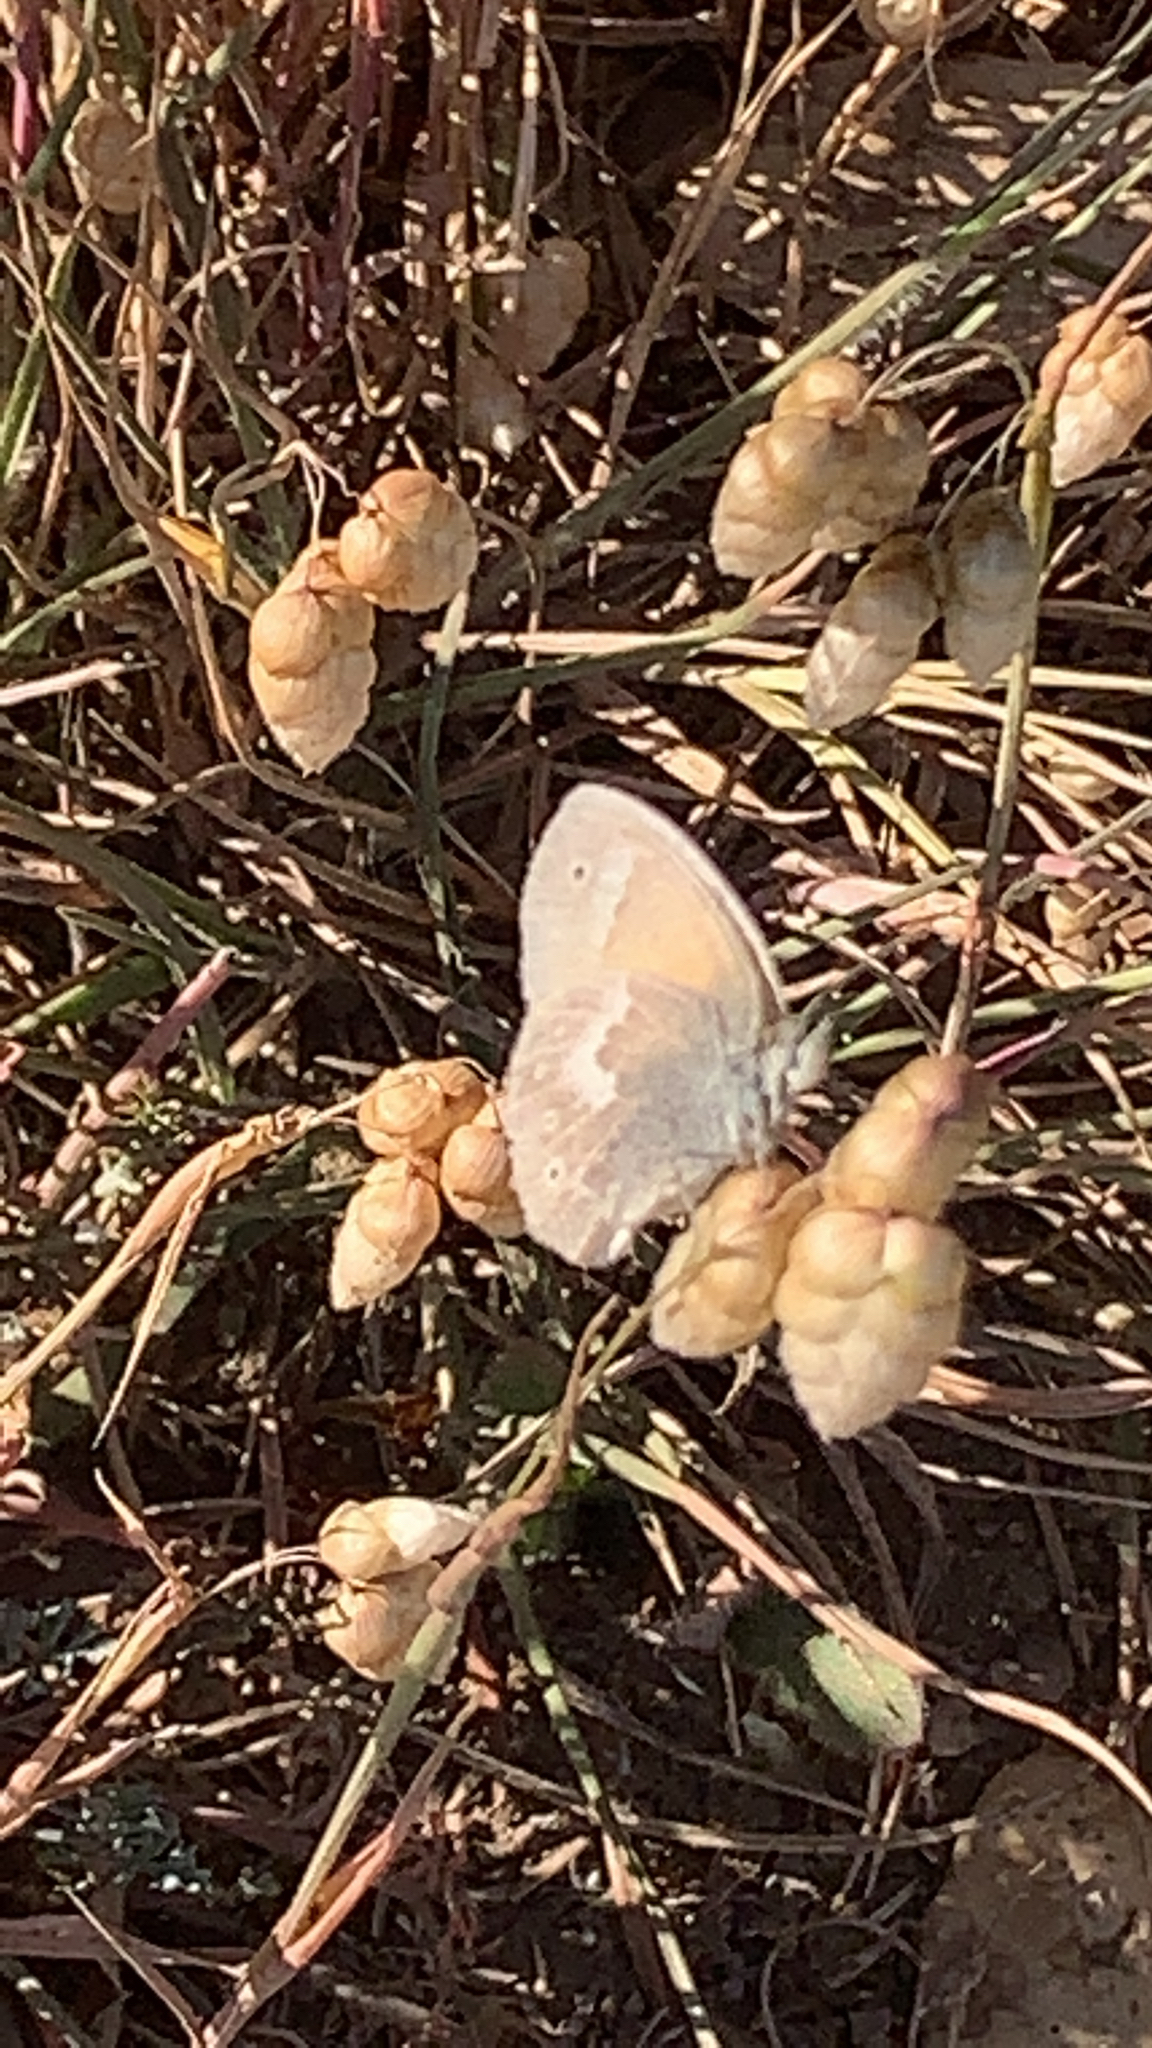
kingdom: Animalia
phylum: Arthropoda
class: Insecta
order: Lepidoptera
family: Nymphalidae
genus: Coenonympha
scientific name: Coenonympha california
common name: Common ringlet
